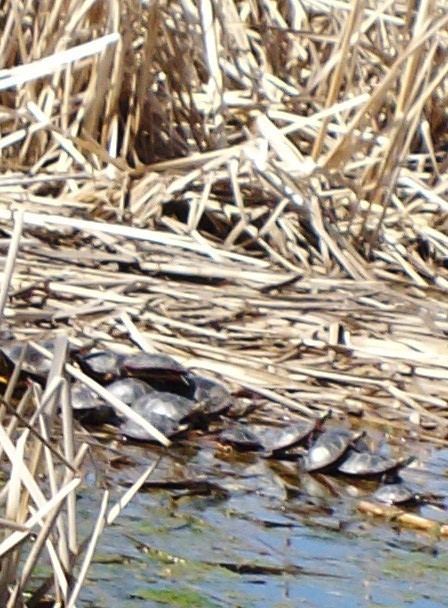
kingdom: Animalia
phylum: Chordata
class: Testudines
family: Emydidae
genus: Chrysemys
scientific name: Chrysemys picta
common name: Painted turtle
